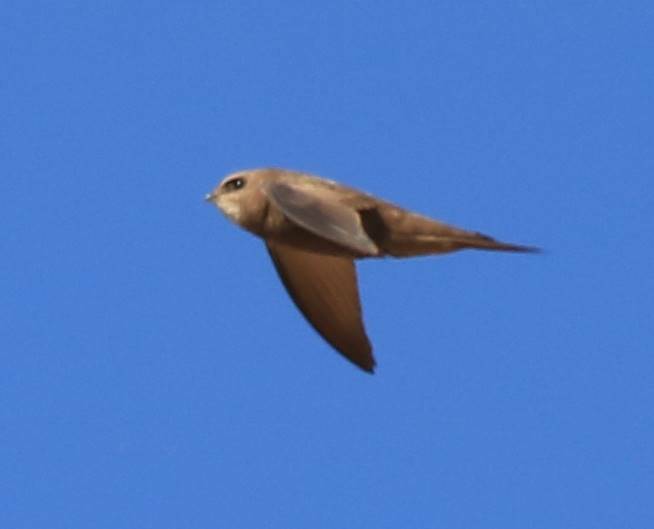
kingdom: Animalia
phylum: Chordata
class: Aves
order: Apodiformes
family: Apodidae
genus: Apus
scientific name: Apus pallidus
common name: Pallid swift
